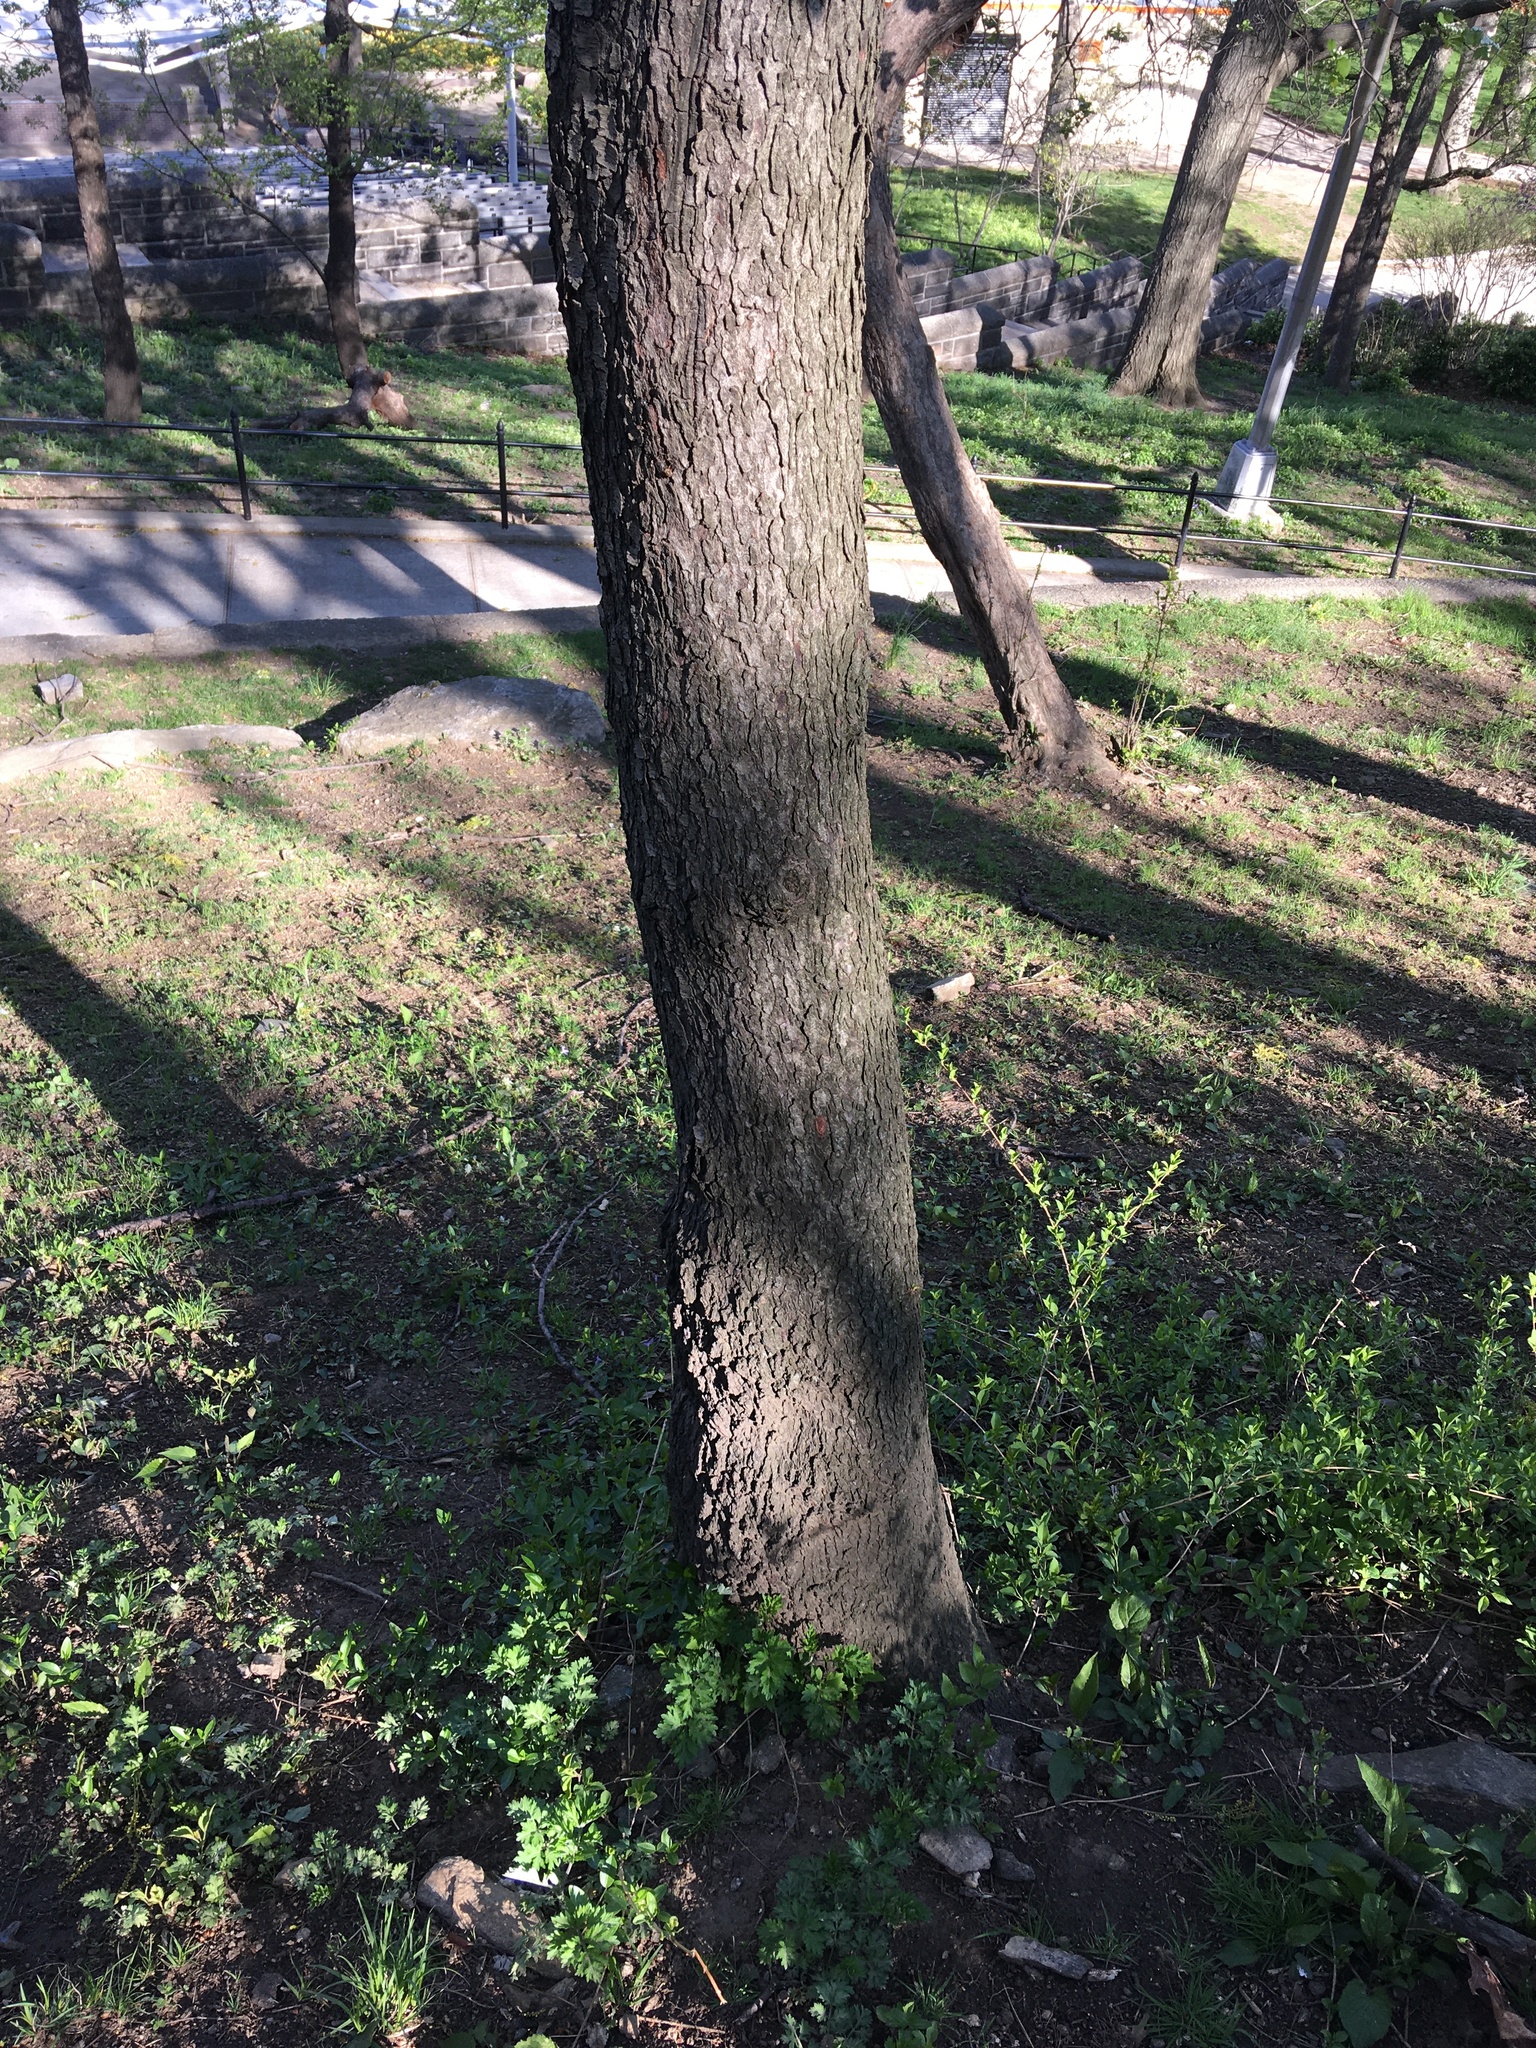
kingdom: Plantae
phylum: Tracheophyta
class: Magnoliopsida
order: Rosales
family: Rosaceae
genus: Prunus
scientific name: Prunus serotina
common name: Black cherry
